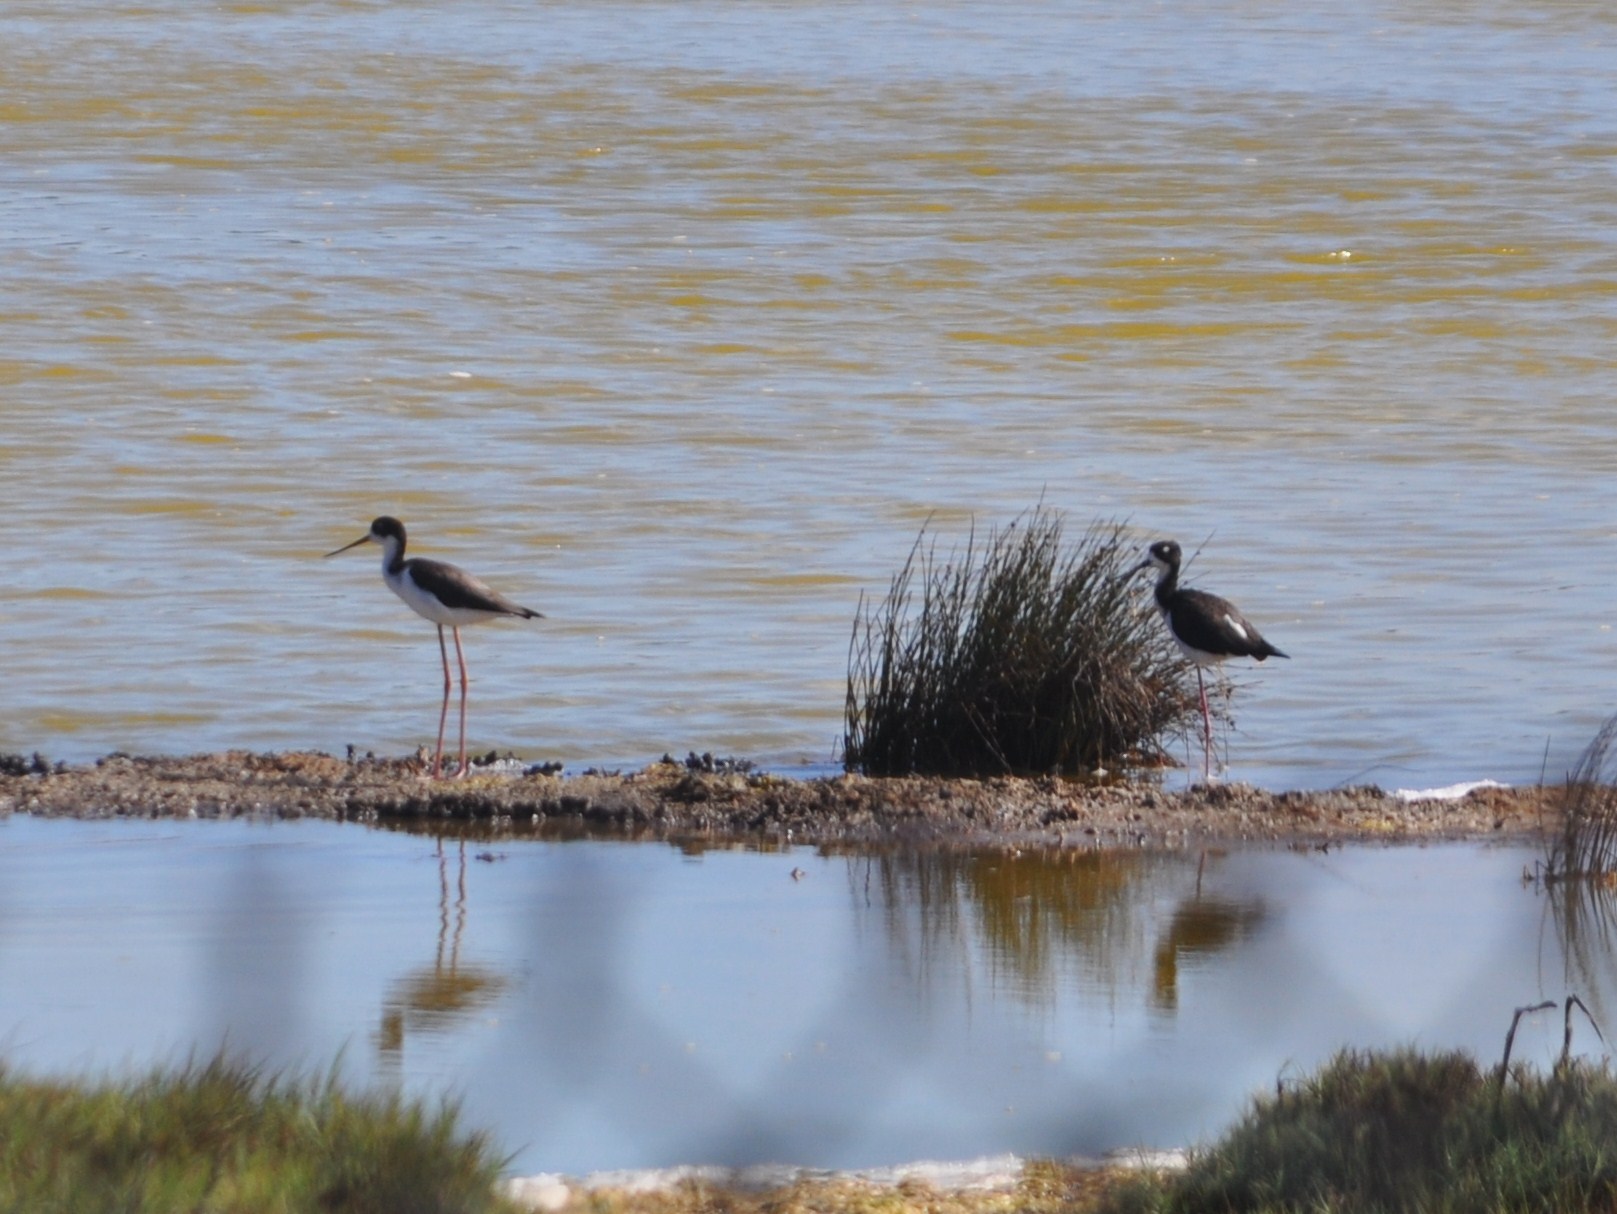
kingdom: Animalia
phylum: Chordata
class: Aves
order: Charadriiformes
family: Recurvirostridae
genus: Himantopus
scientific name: Himantopus mexicanus
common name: Black-necked stilt
